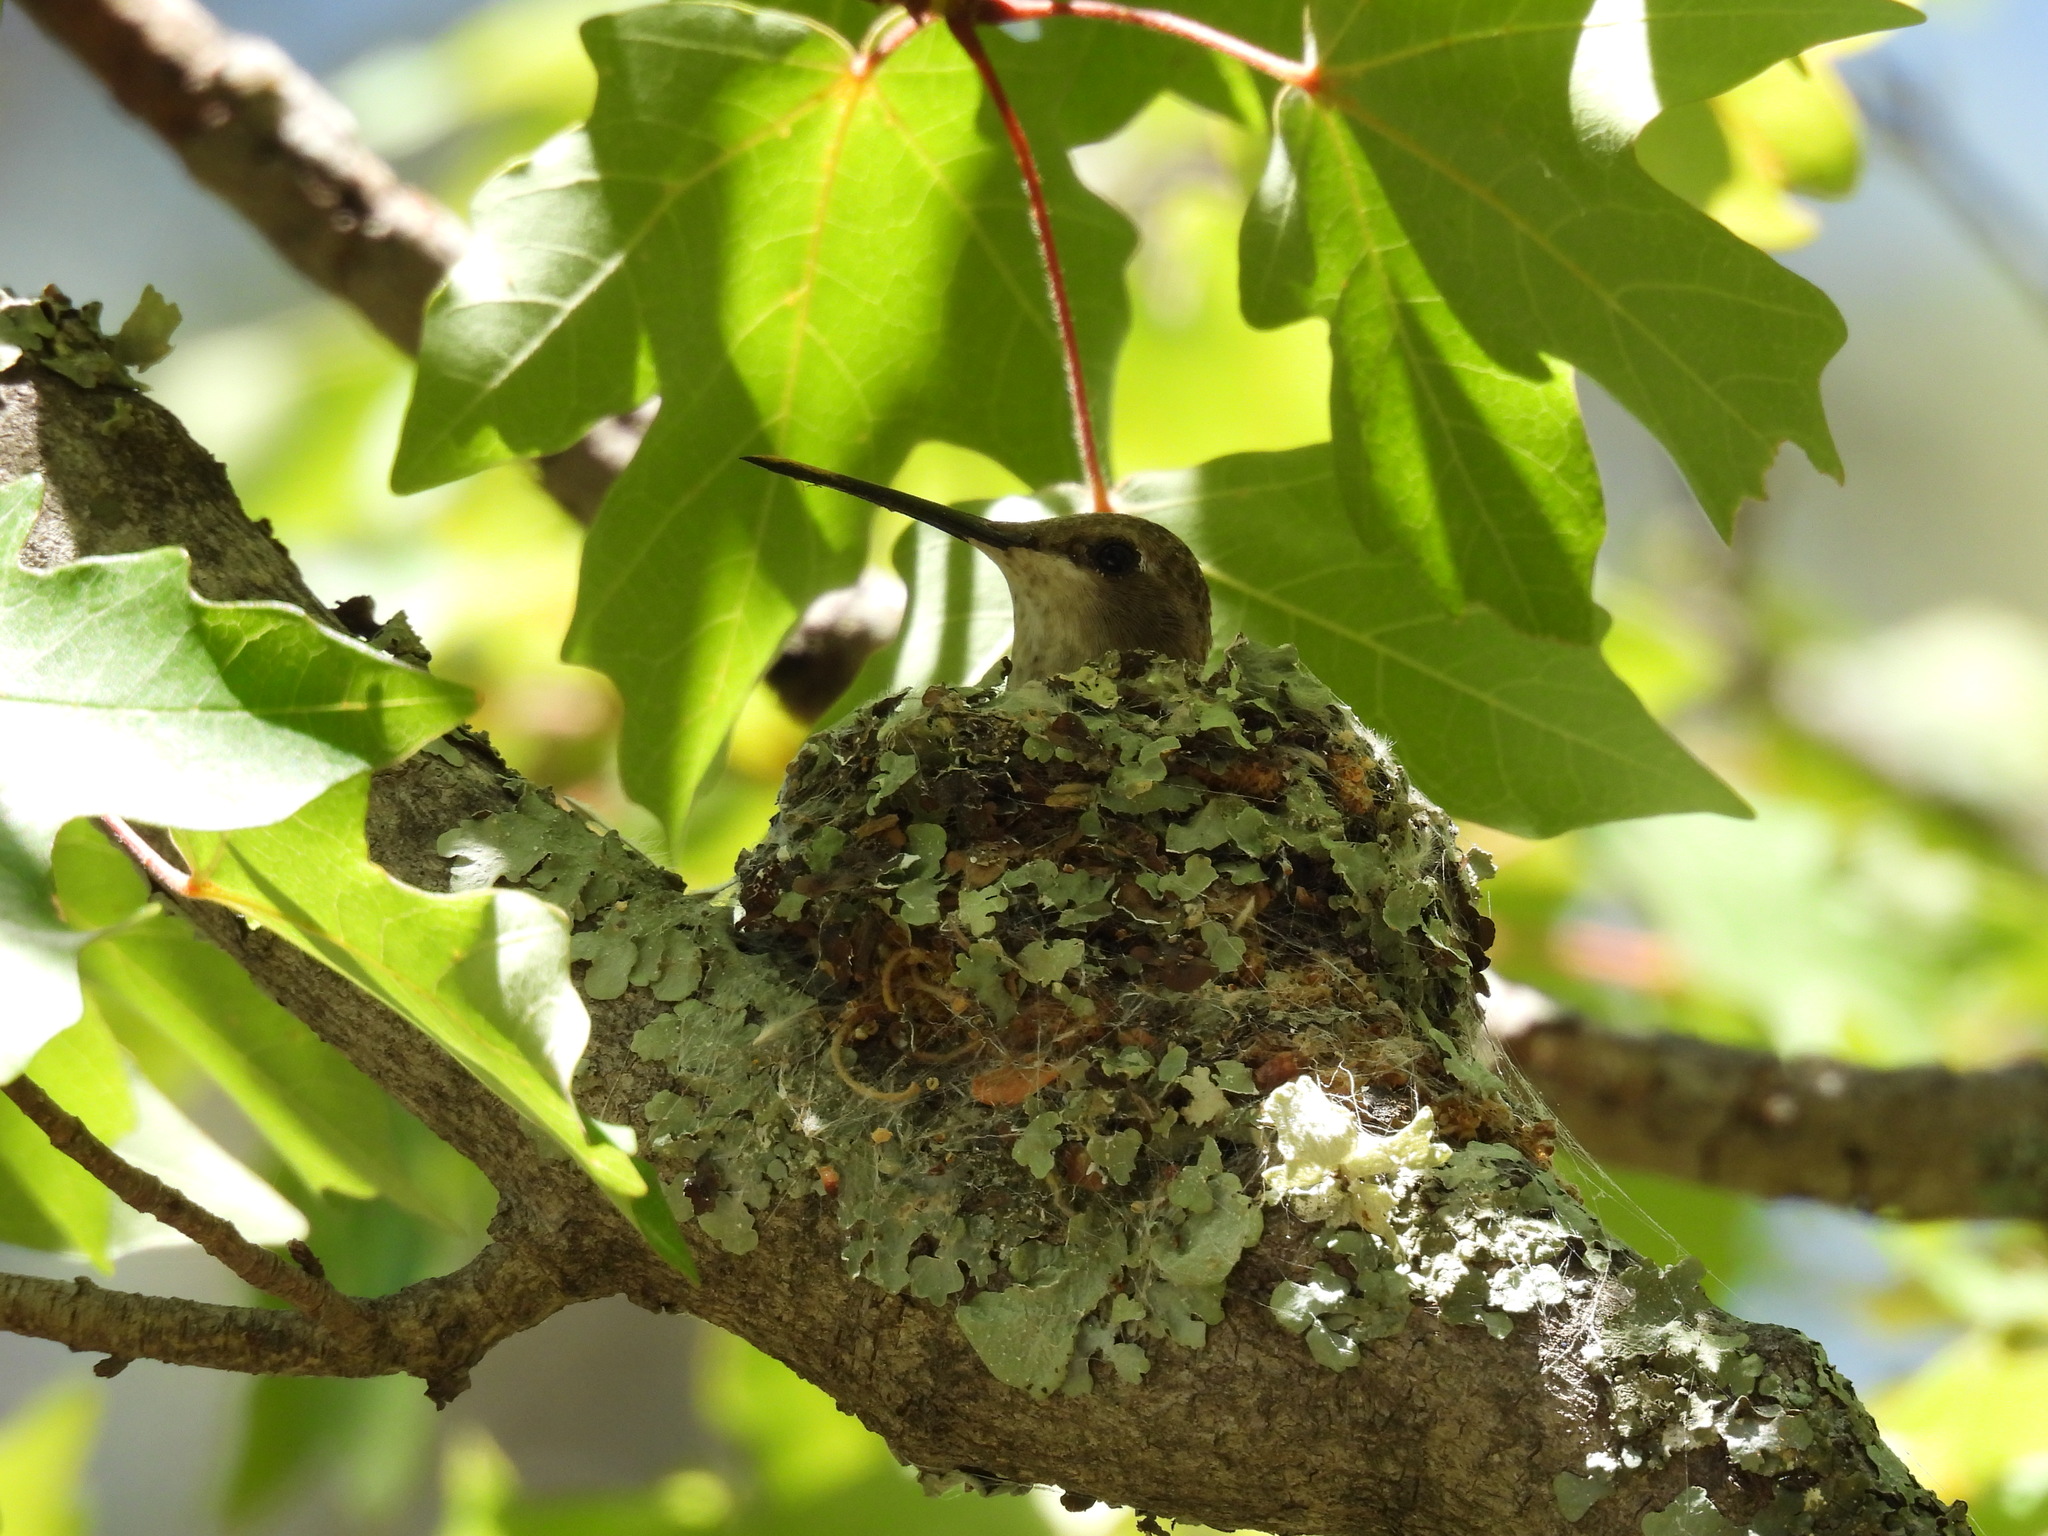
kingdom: Animalia
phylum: Chordata
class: Aves
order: Apodiformes
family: Trochilidae
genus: Archilochus
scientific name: Archilochus alexandri
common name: Black-chinned hummingbird
